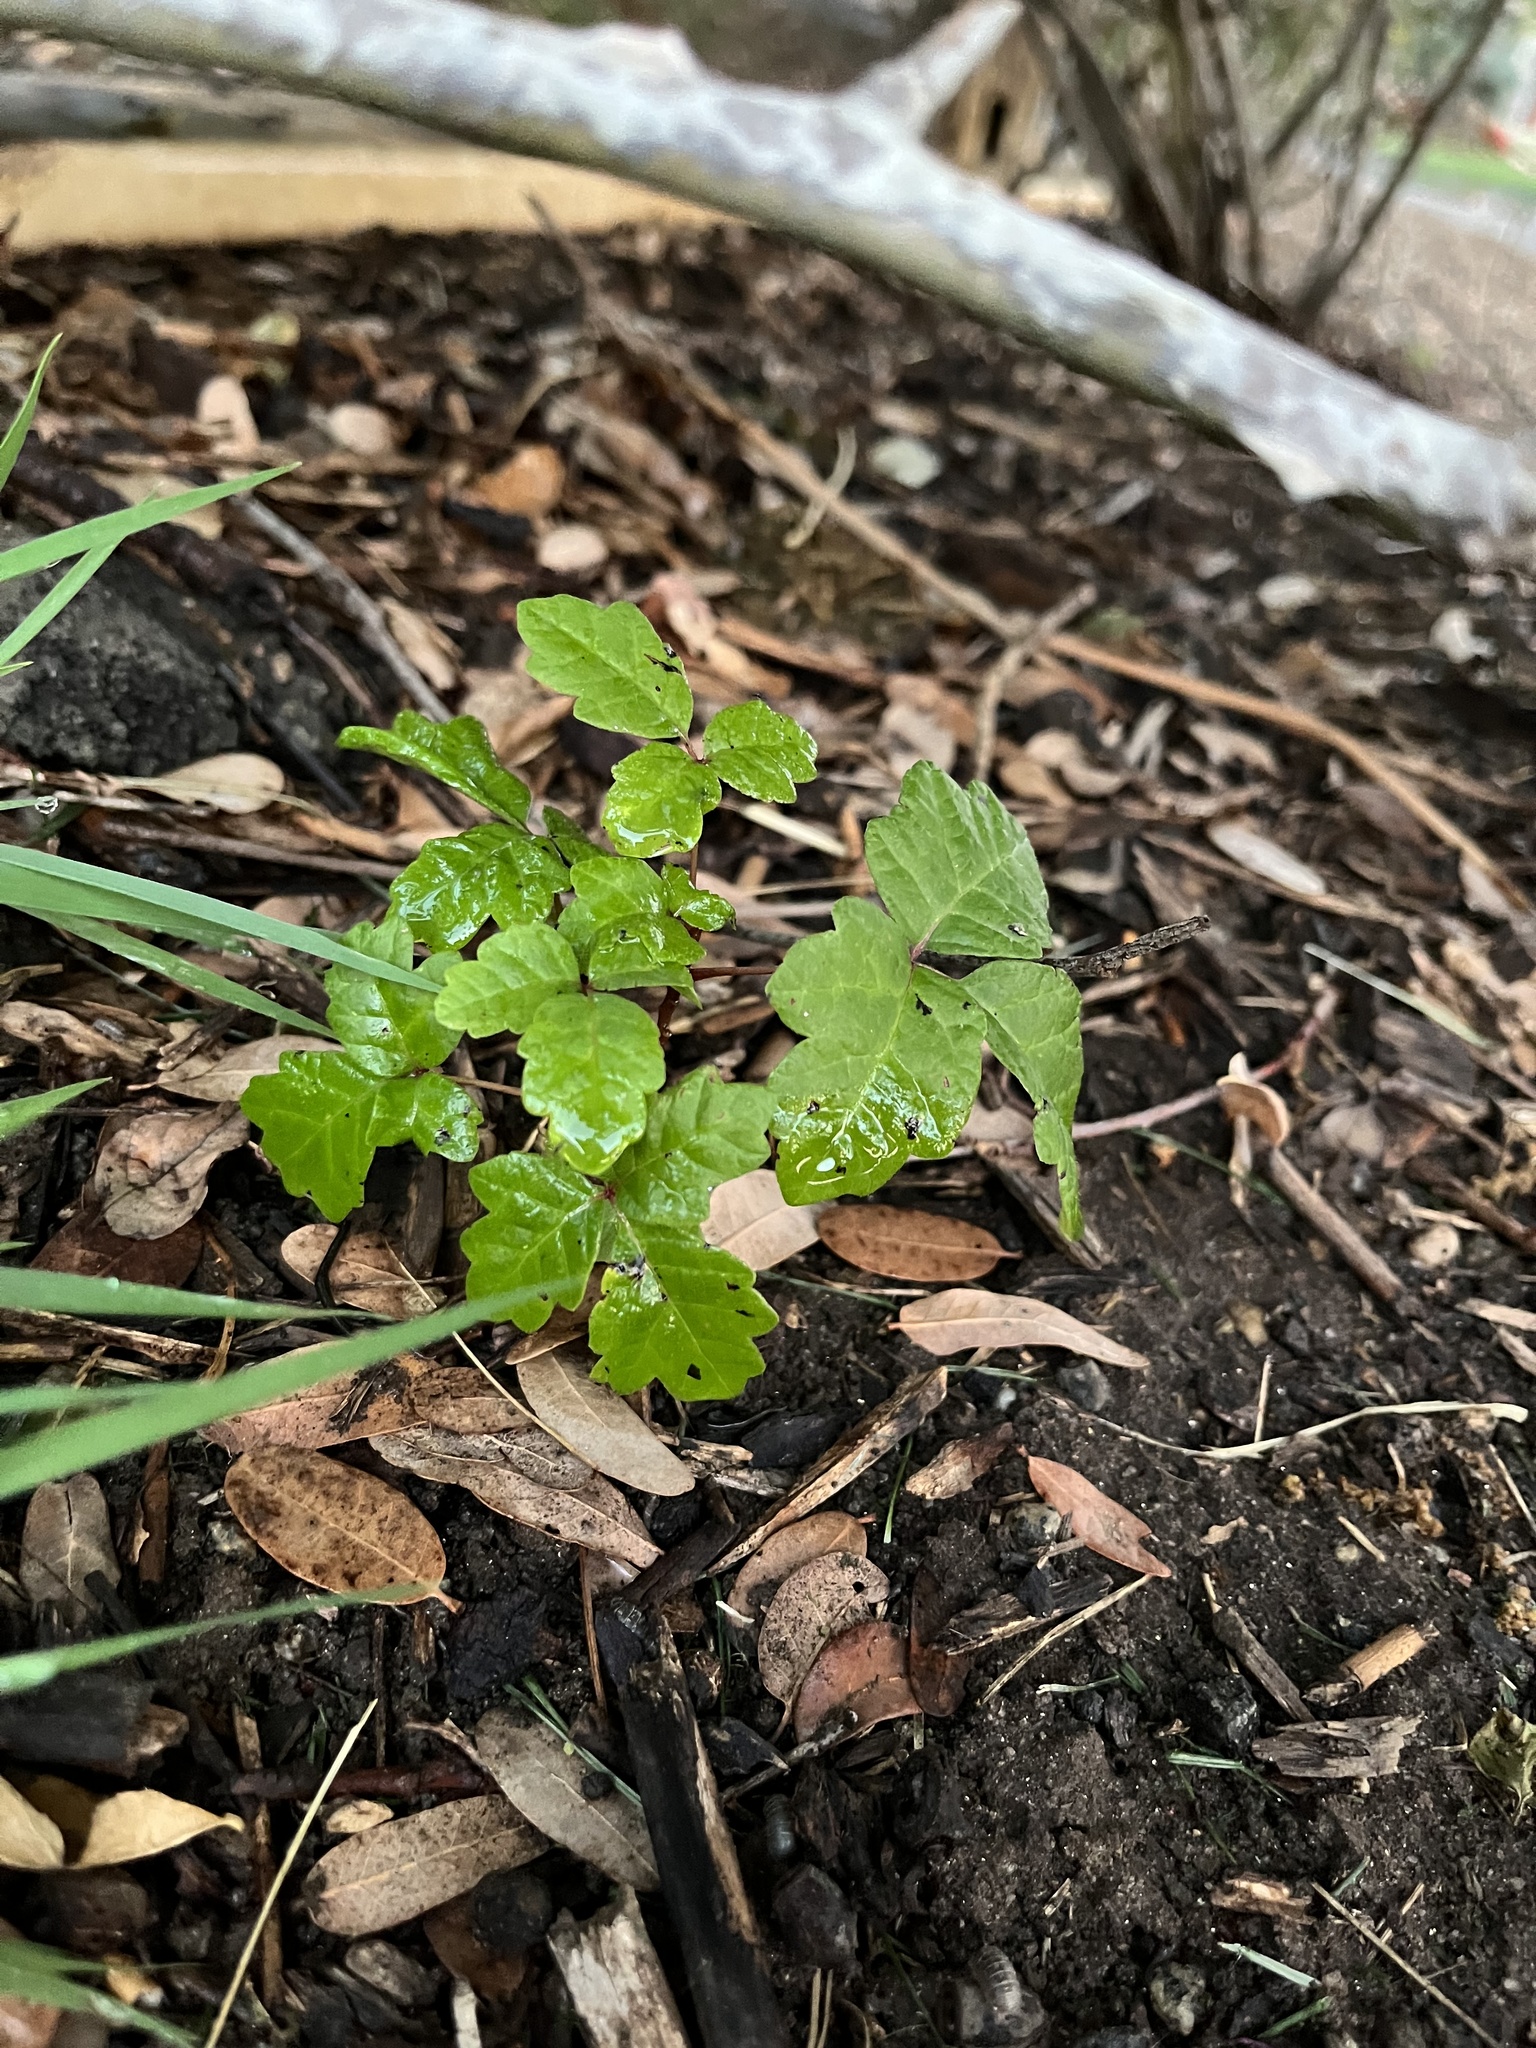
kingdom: Plantae
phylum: Tracheophyta
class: Magnoliopsida
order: Sapindales
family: Anacardiaceae
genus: Toxicodendron
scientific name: Toxicodendron diversilobum
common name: Pacific poison-oak
